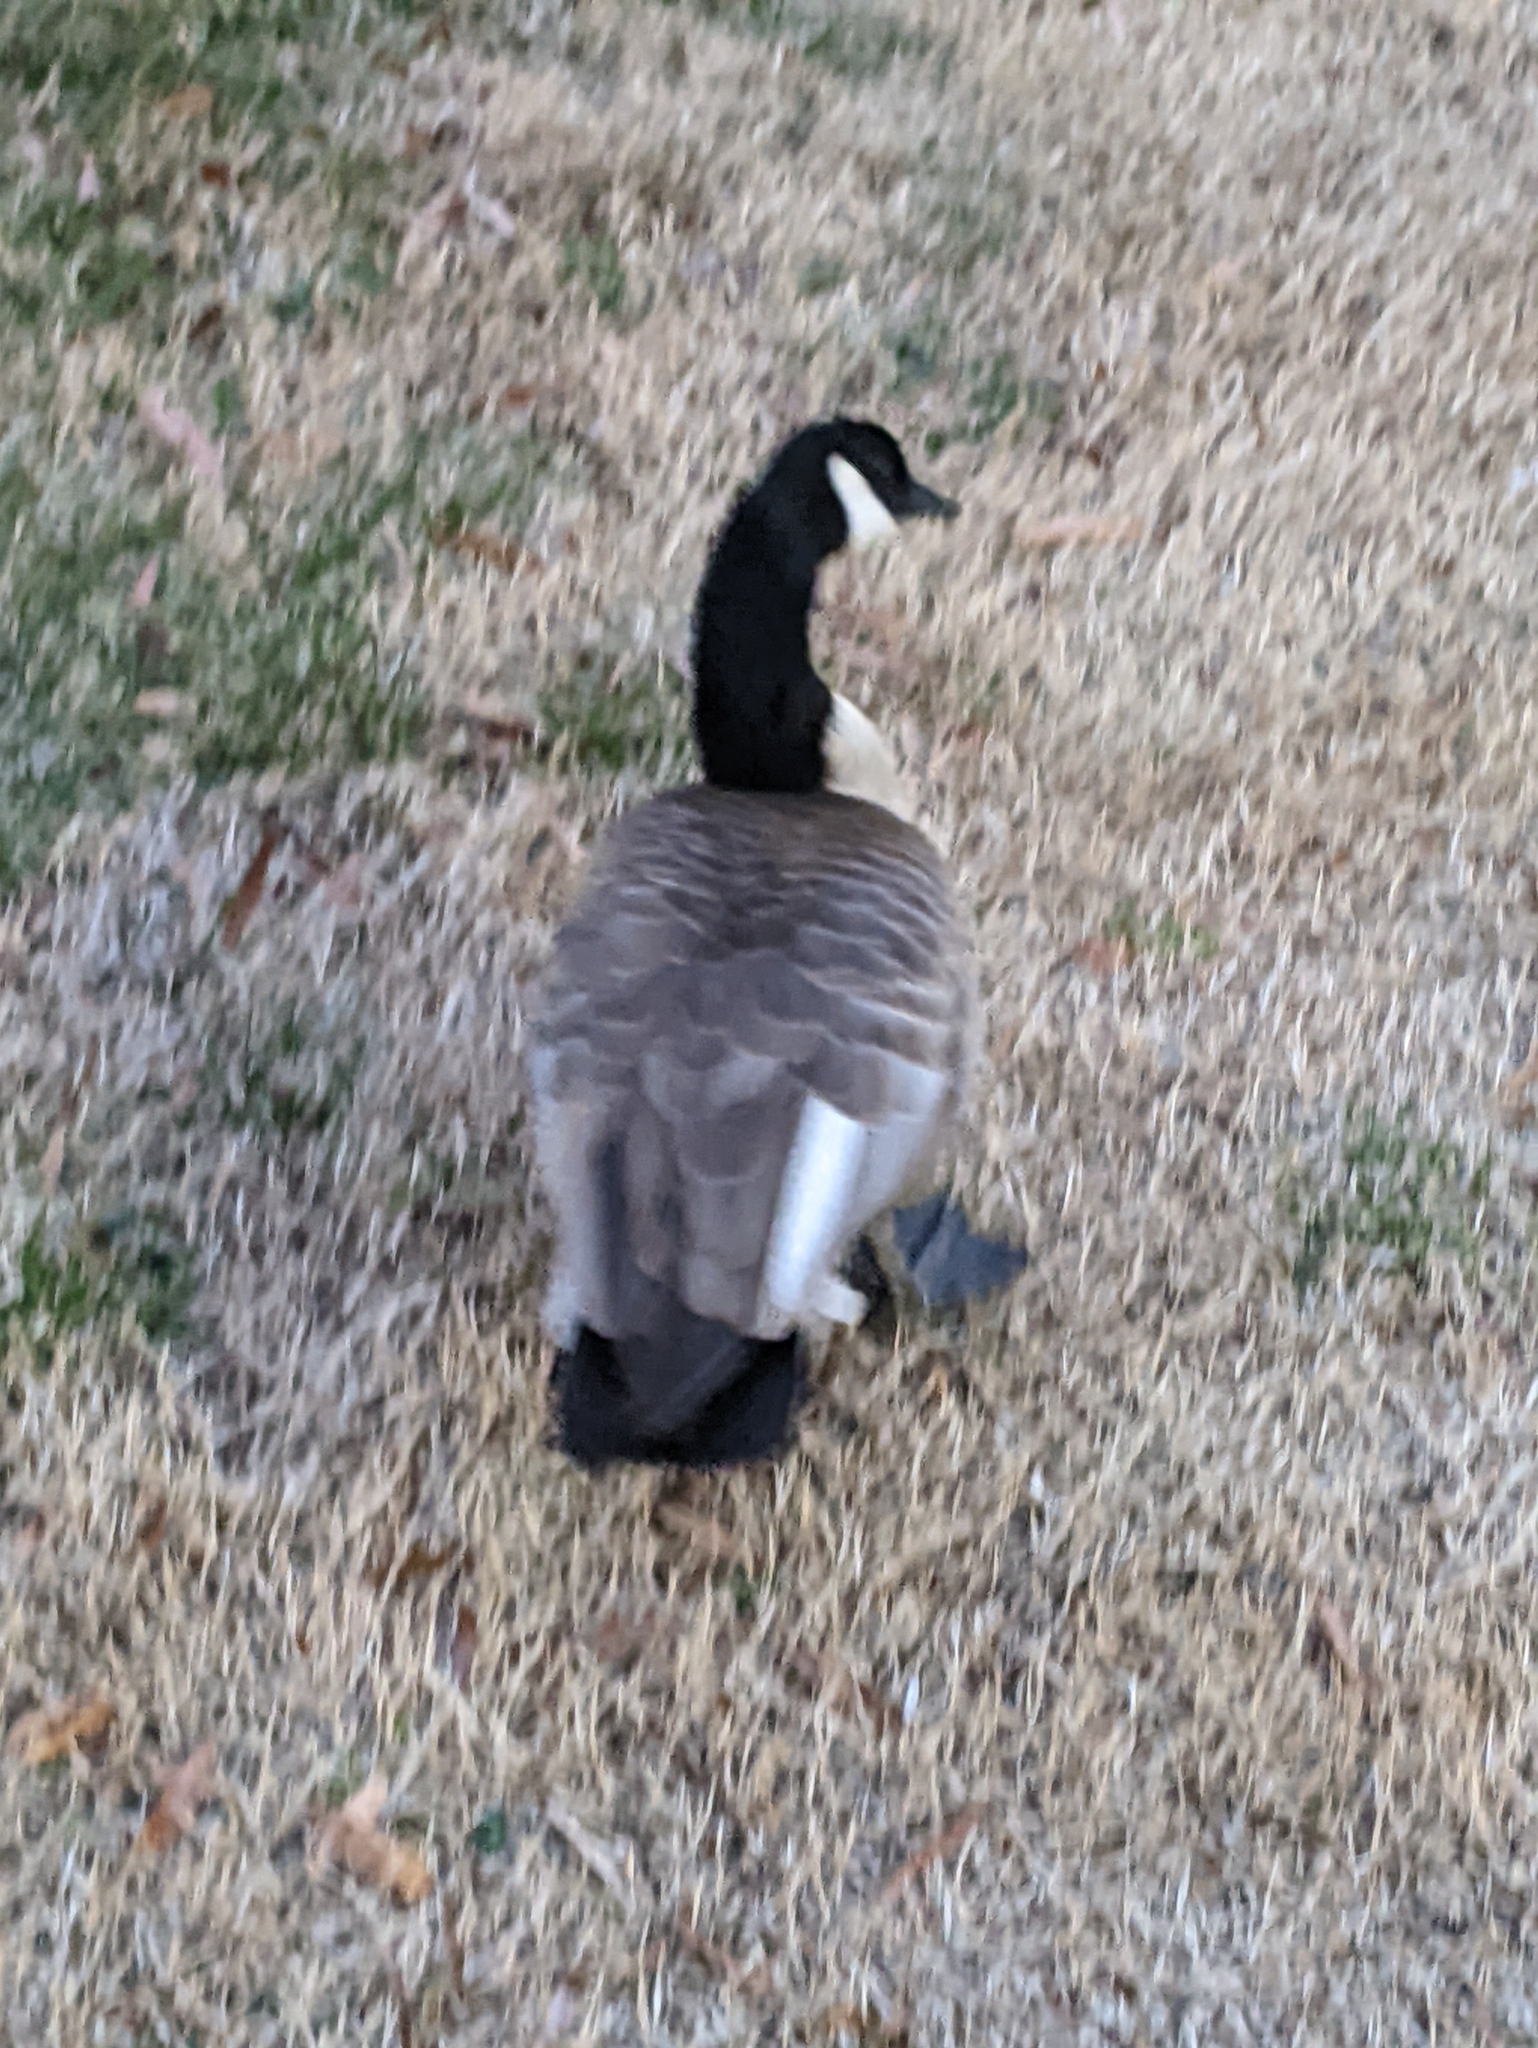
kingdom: Animalia
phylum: Chordata
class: Aves
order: Anseriformes
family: Anatidae
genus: Branta
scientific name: Branta canadensis
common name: Canada goose
